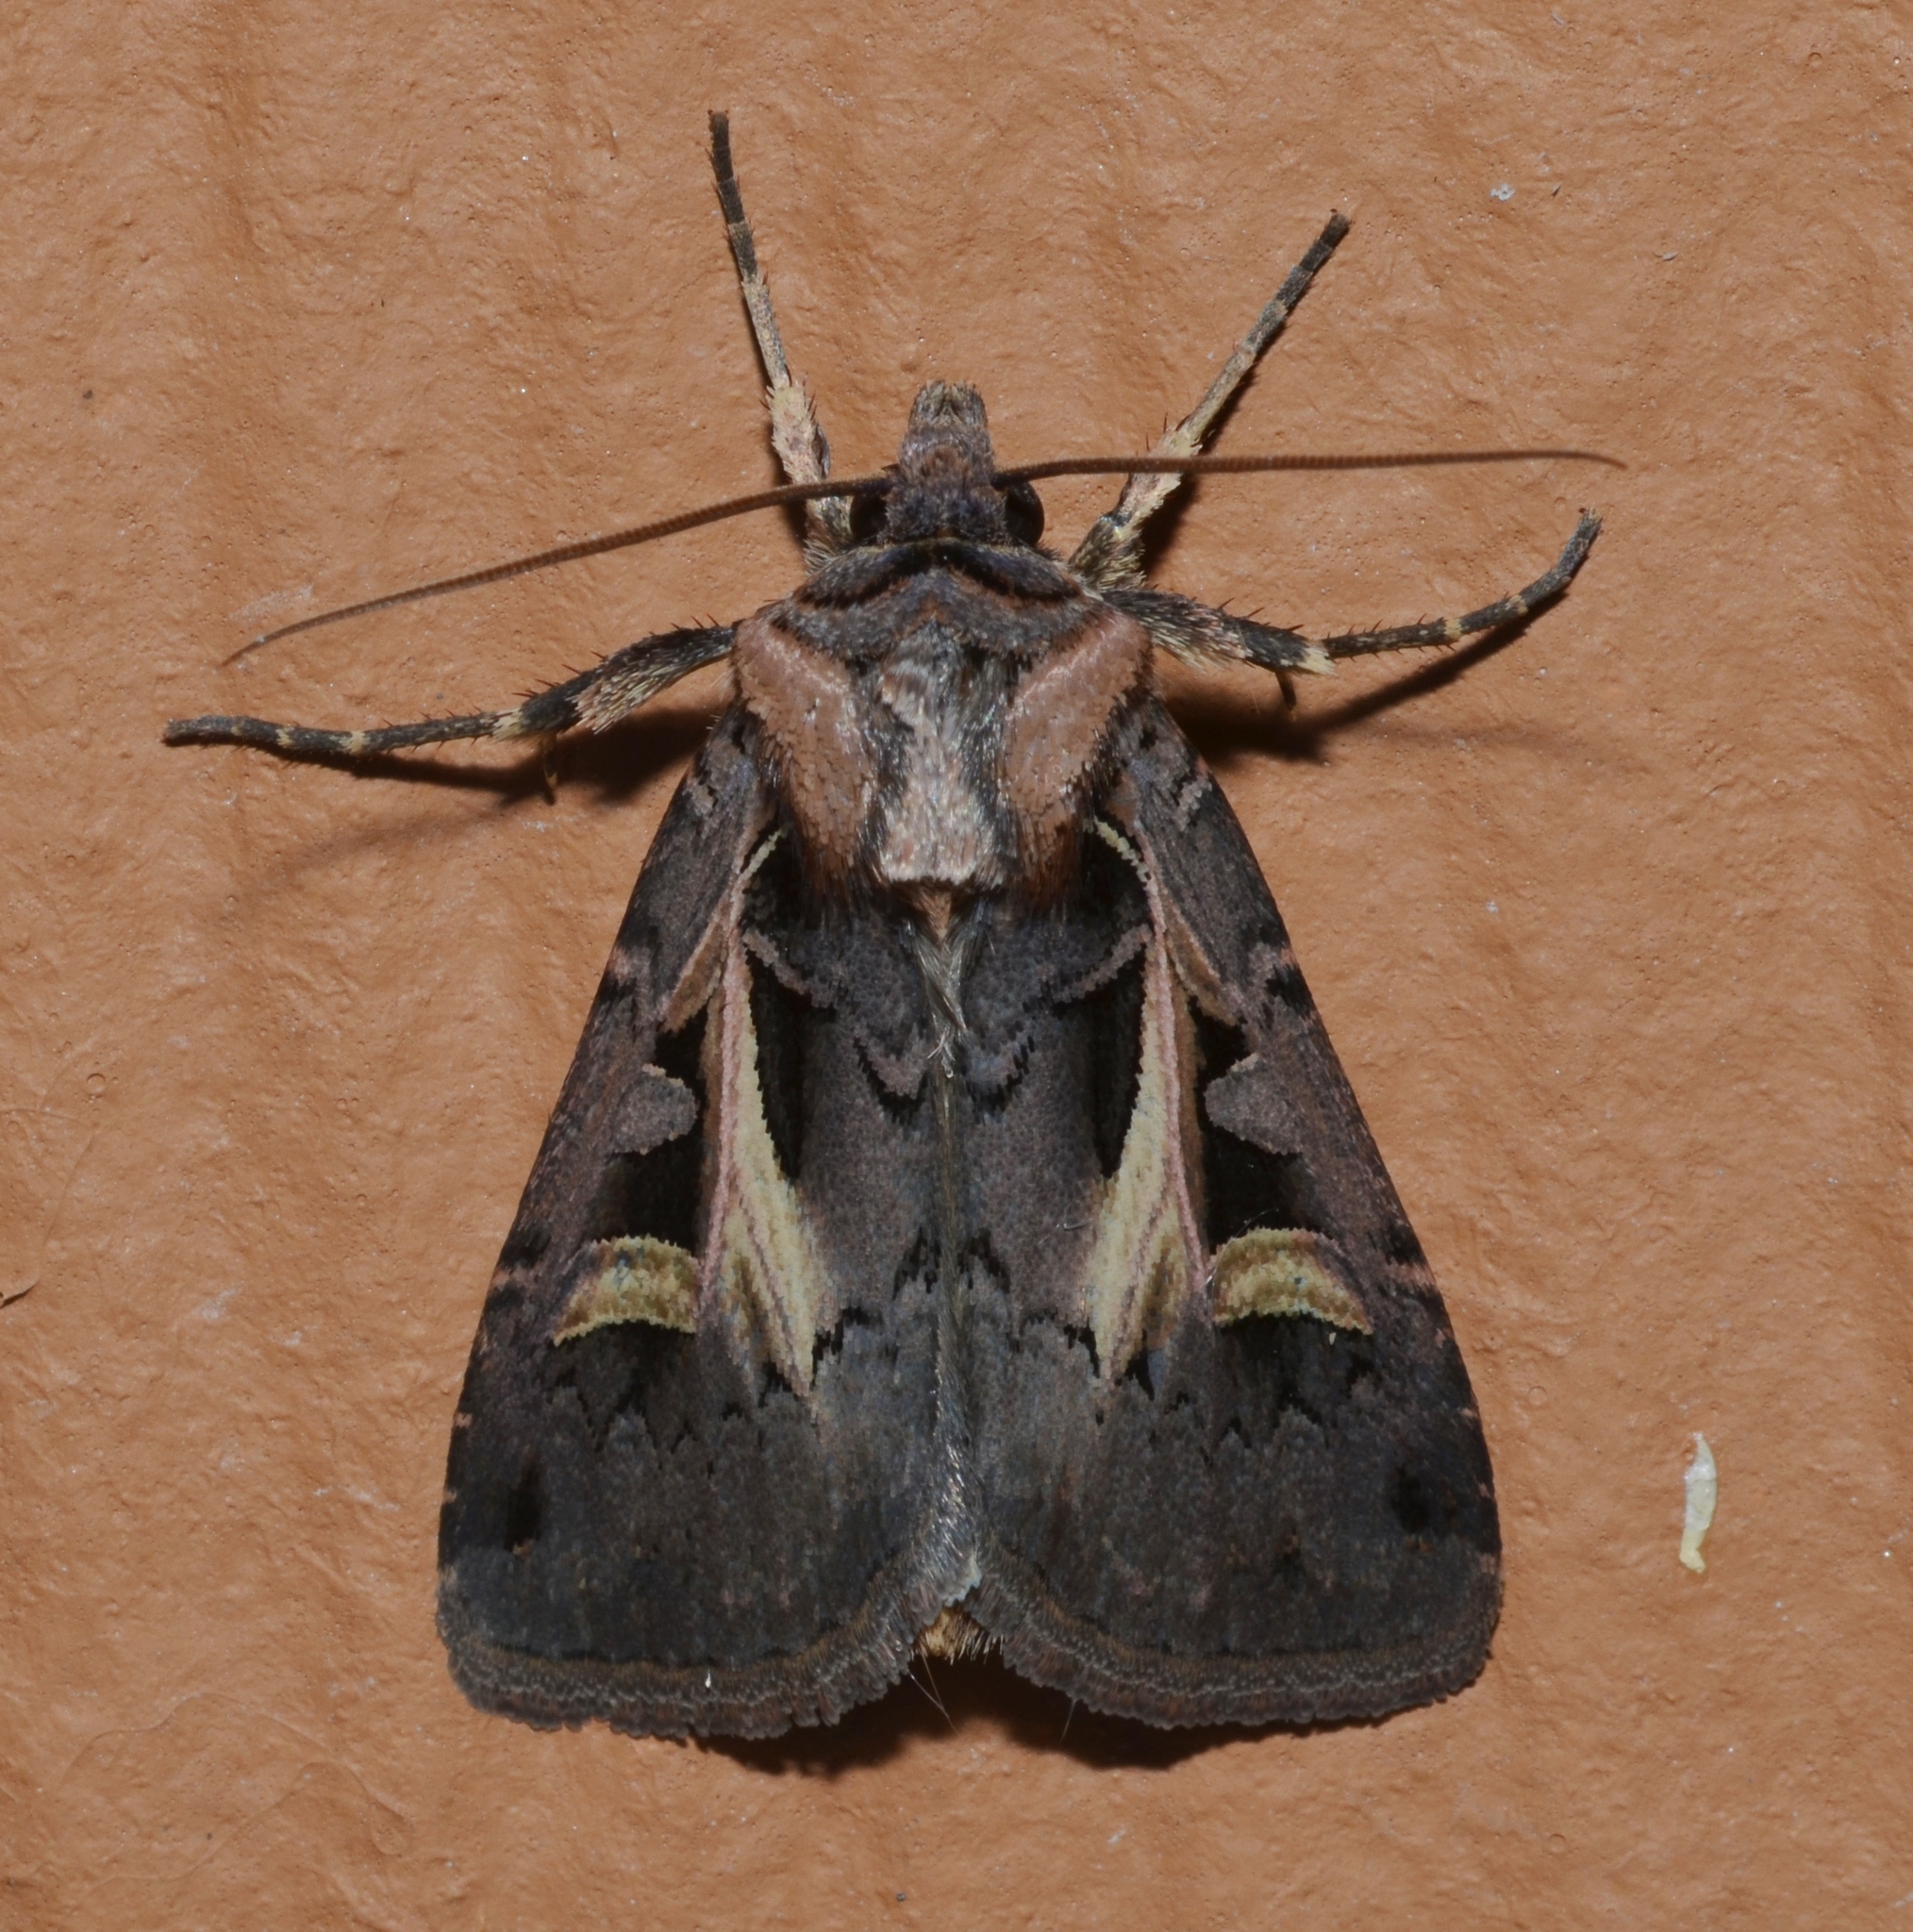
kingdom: Animalia
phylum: Arthropoda
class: Insecta
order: Lepidoptera
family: Noctuidae
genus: Feltia
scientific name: Feltia herilis
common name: Master's dart
